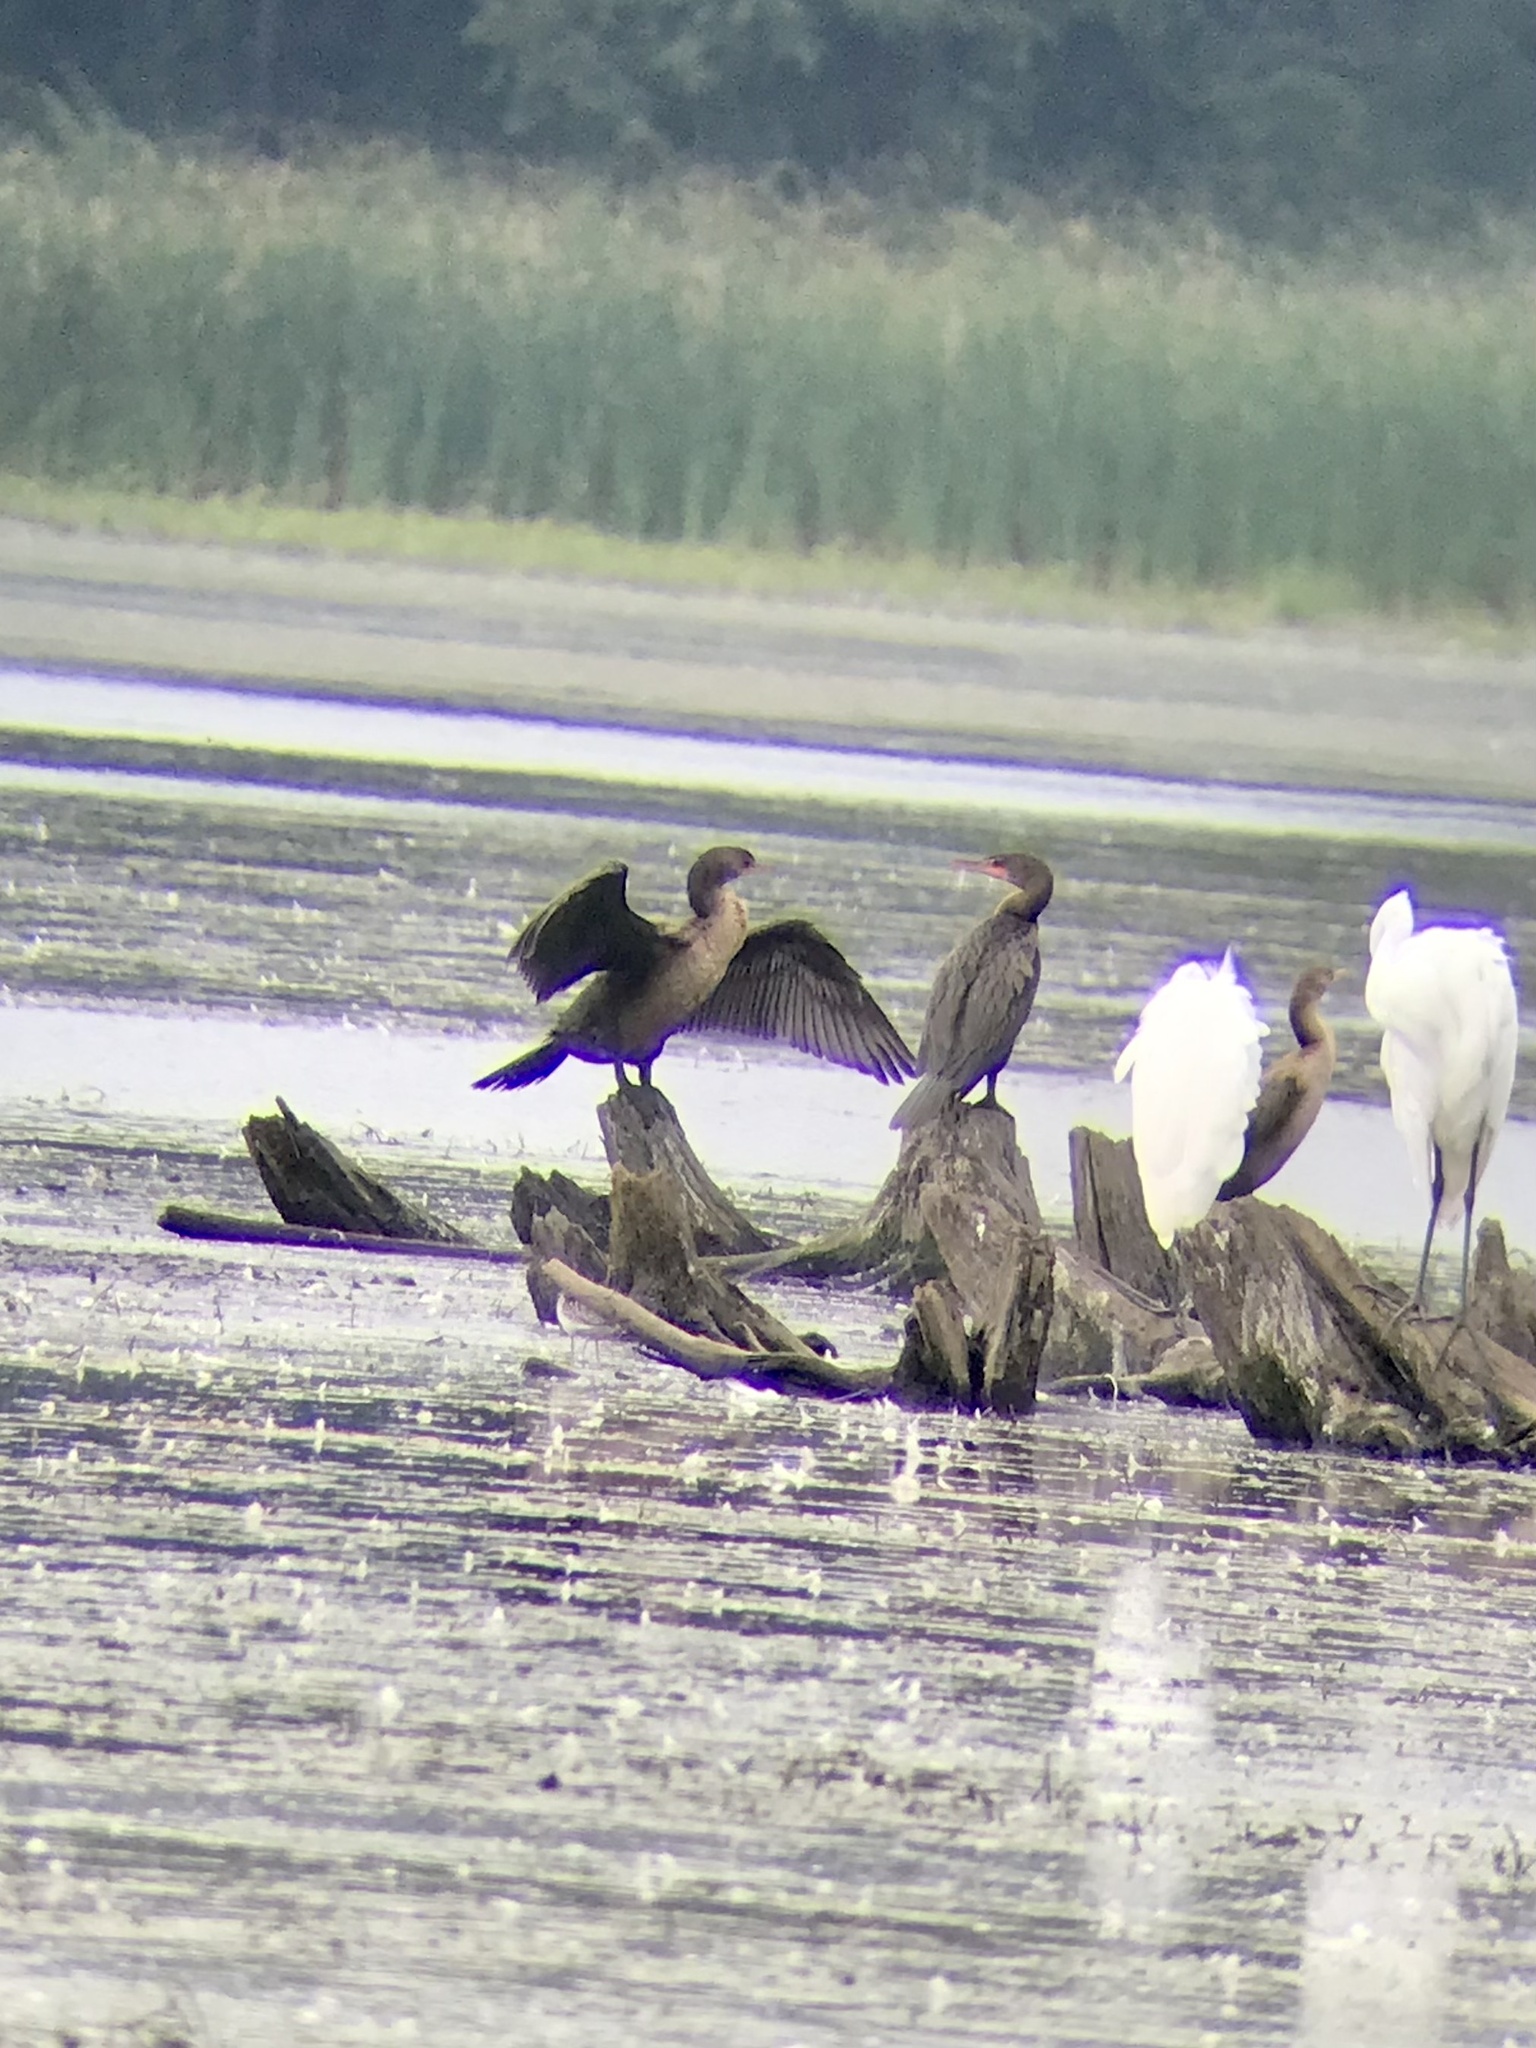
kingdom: Animalia
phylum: Chordata
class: Aves
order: Suliformes
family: Phalacrocoracidae
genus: Phalacrocorax
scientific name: Phalacrocorax auritus
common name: Double-crested cormorant
